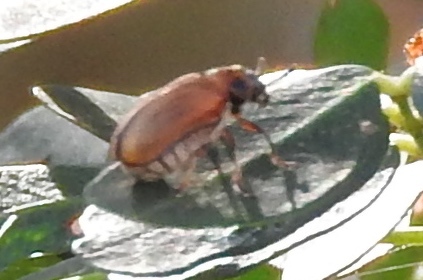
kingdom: Animalia
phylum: Arthropoda
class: Insecta
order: Coleoptera
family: Chrysomelidae
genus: Anomoea
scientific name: Anomoea
